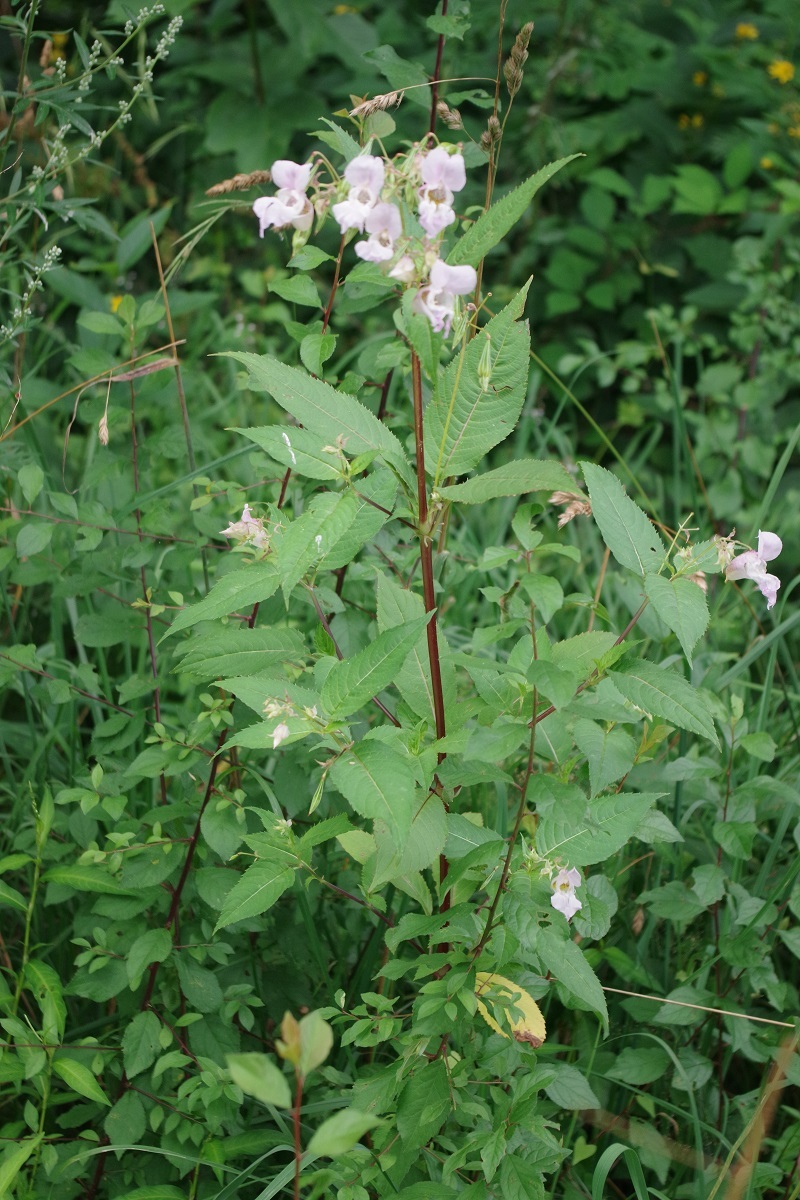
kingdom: Plantae
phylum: Tracheophyta
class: Magnoliopsida
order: Ericales
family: Balsaminaceae
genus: Impatiens
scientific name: Impatiens glandulifera
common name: Himalayan balsam
